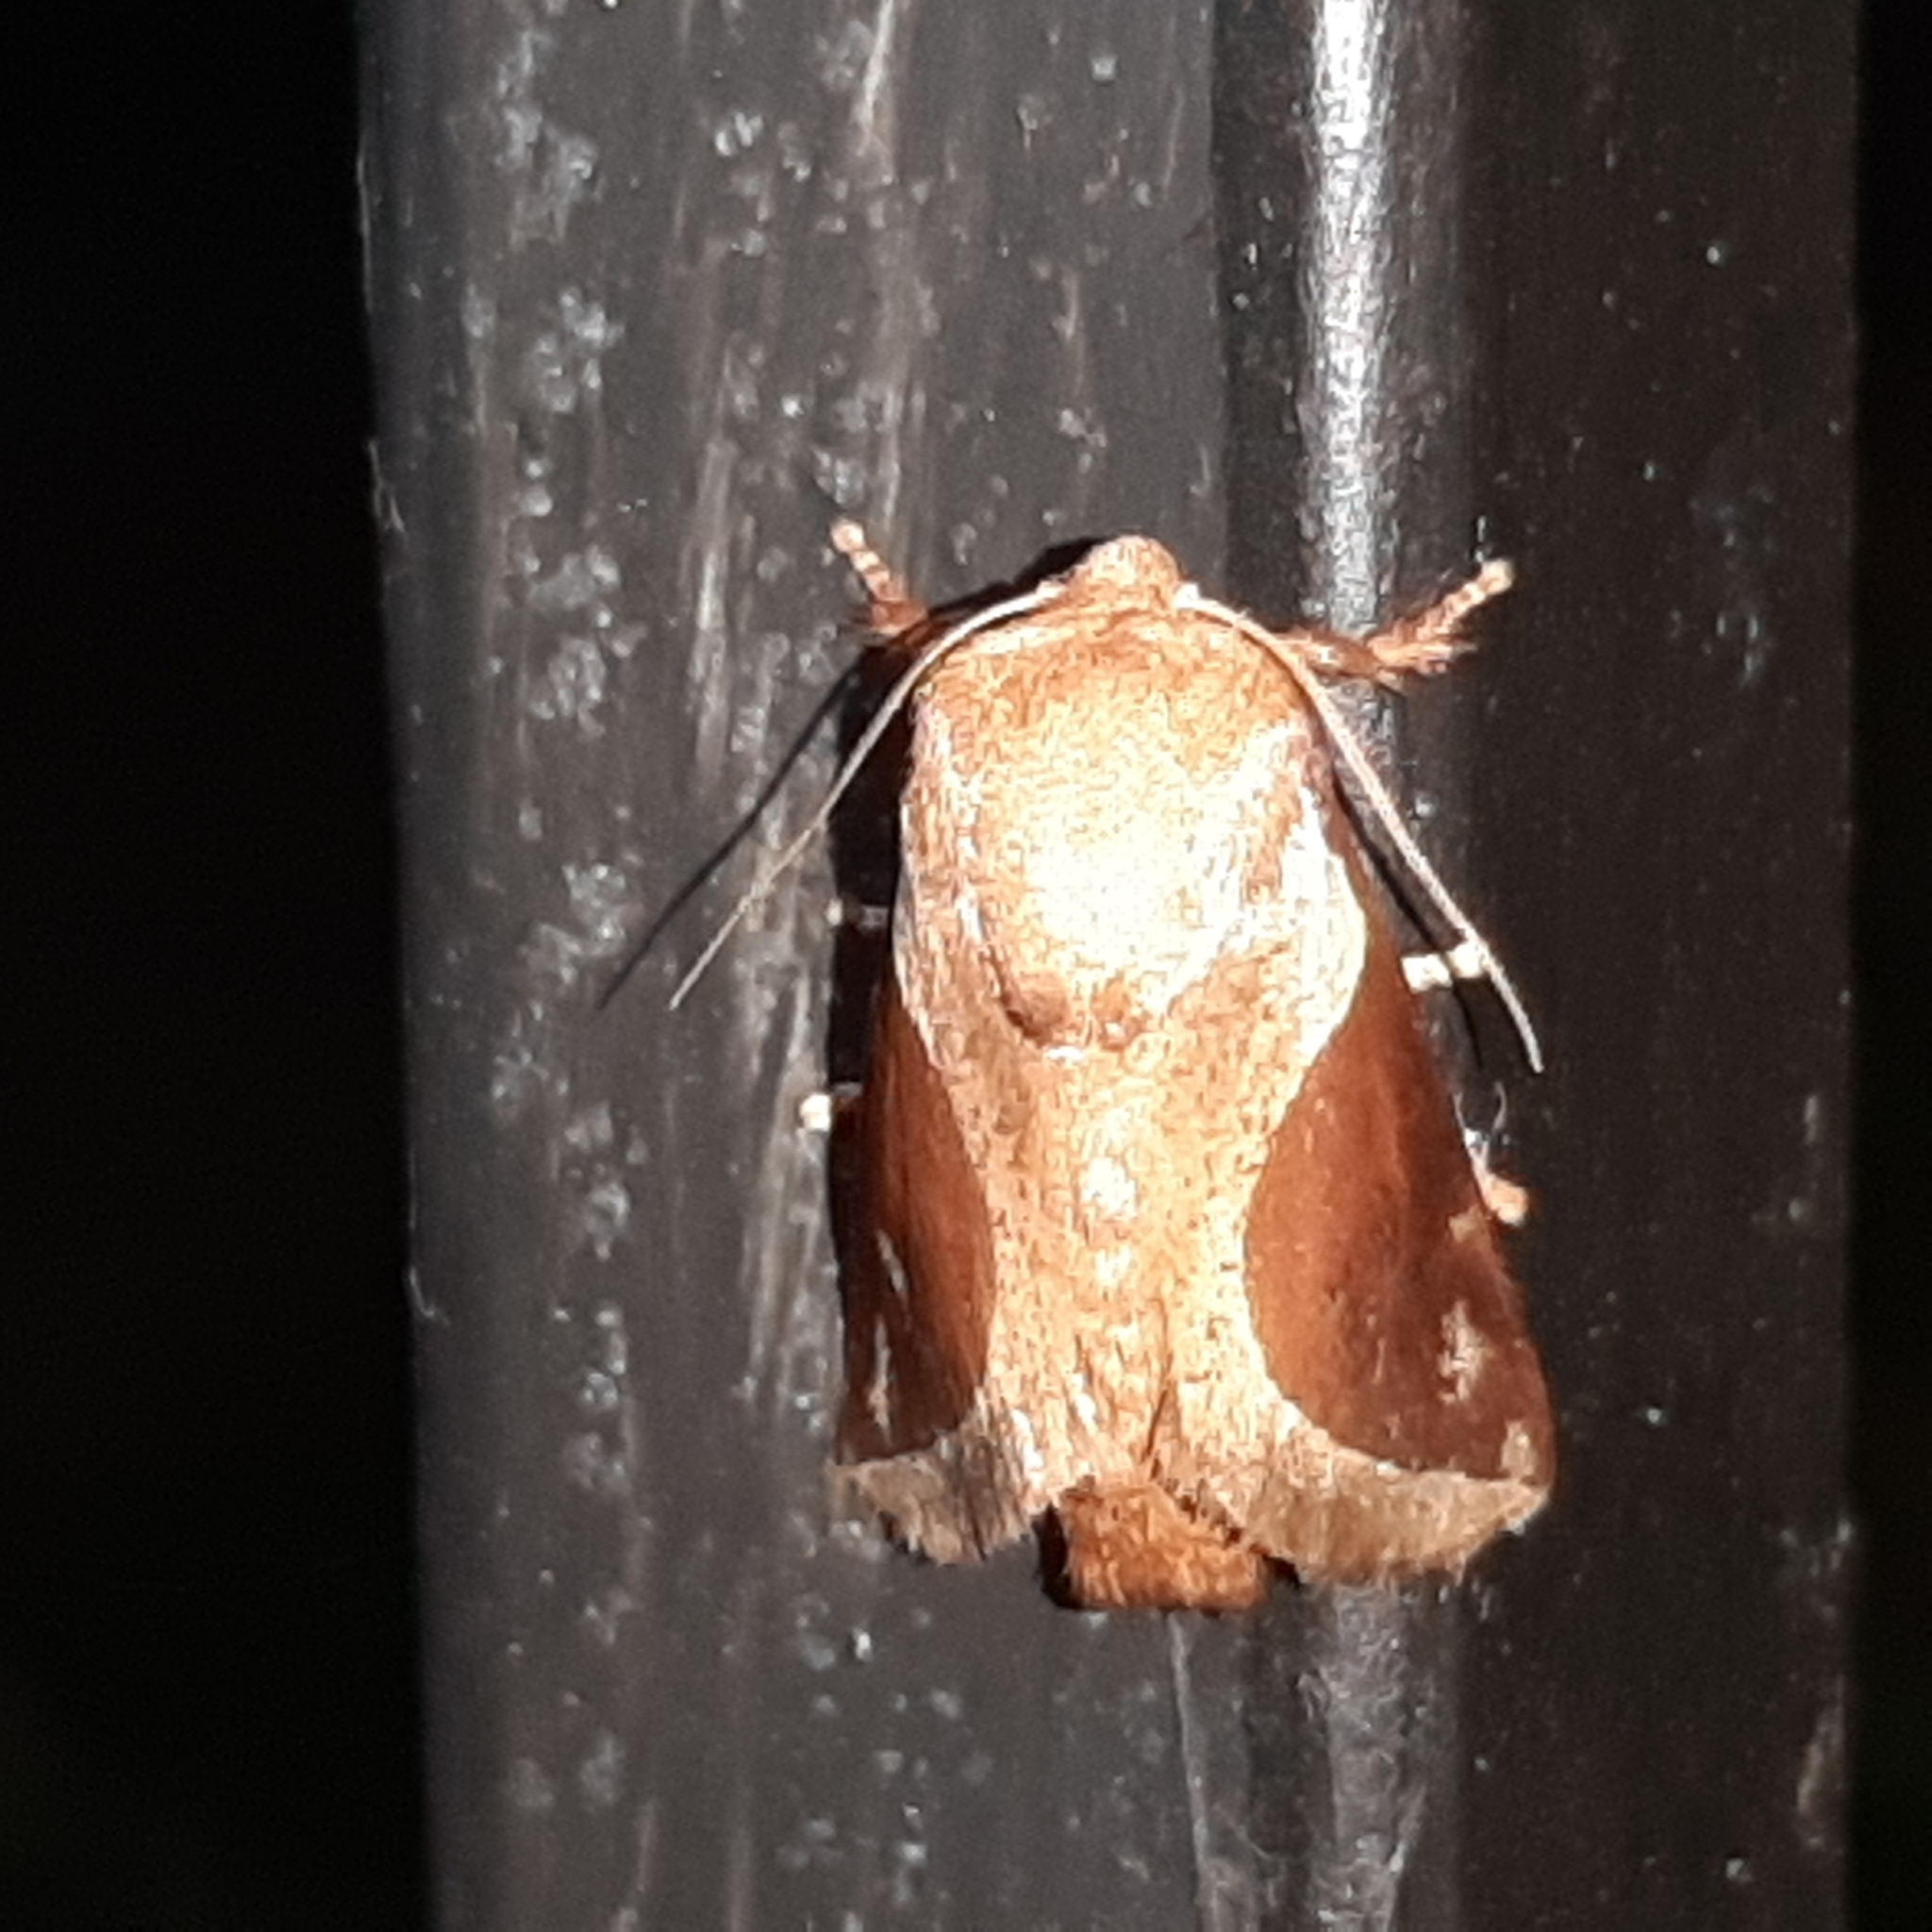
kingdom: Animalia
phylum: Arthropoda
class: Insecta
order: Lepidoptera
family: Limacodidae
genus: Prolimacodes
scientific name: Prolimacodes badia
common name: Skiff moth
